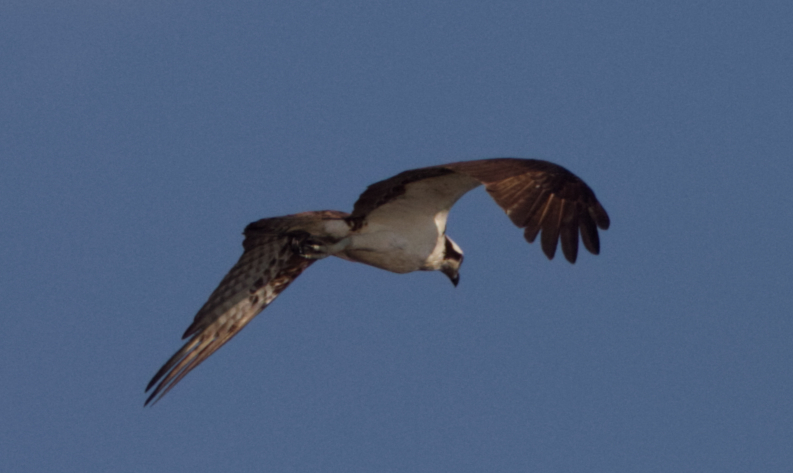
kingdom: Animalia
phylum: Chordata
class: Aves
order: Accipitriformes
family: Pandionidae
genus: Pandion
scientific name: Pandion haliaetus
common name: Osprey
